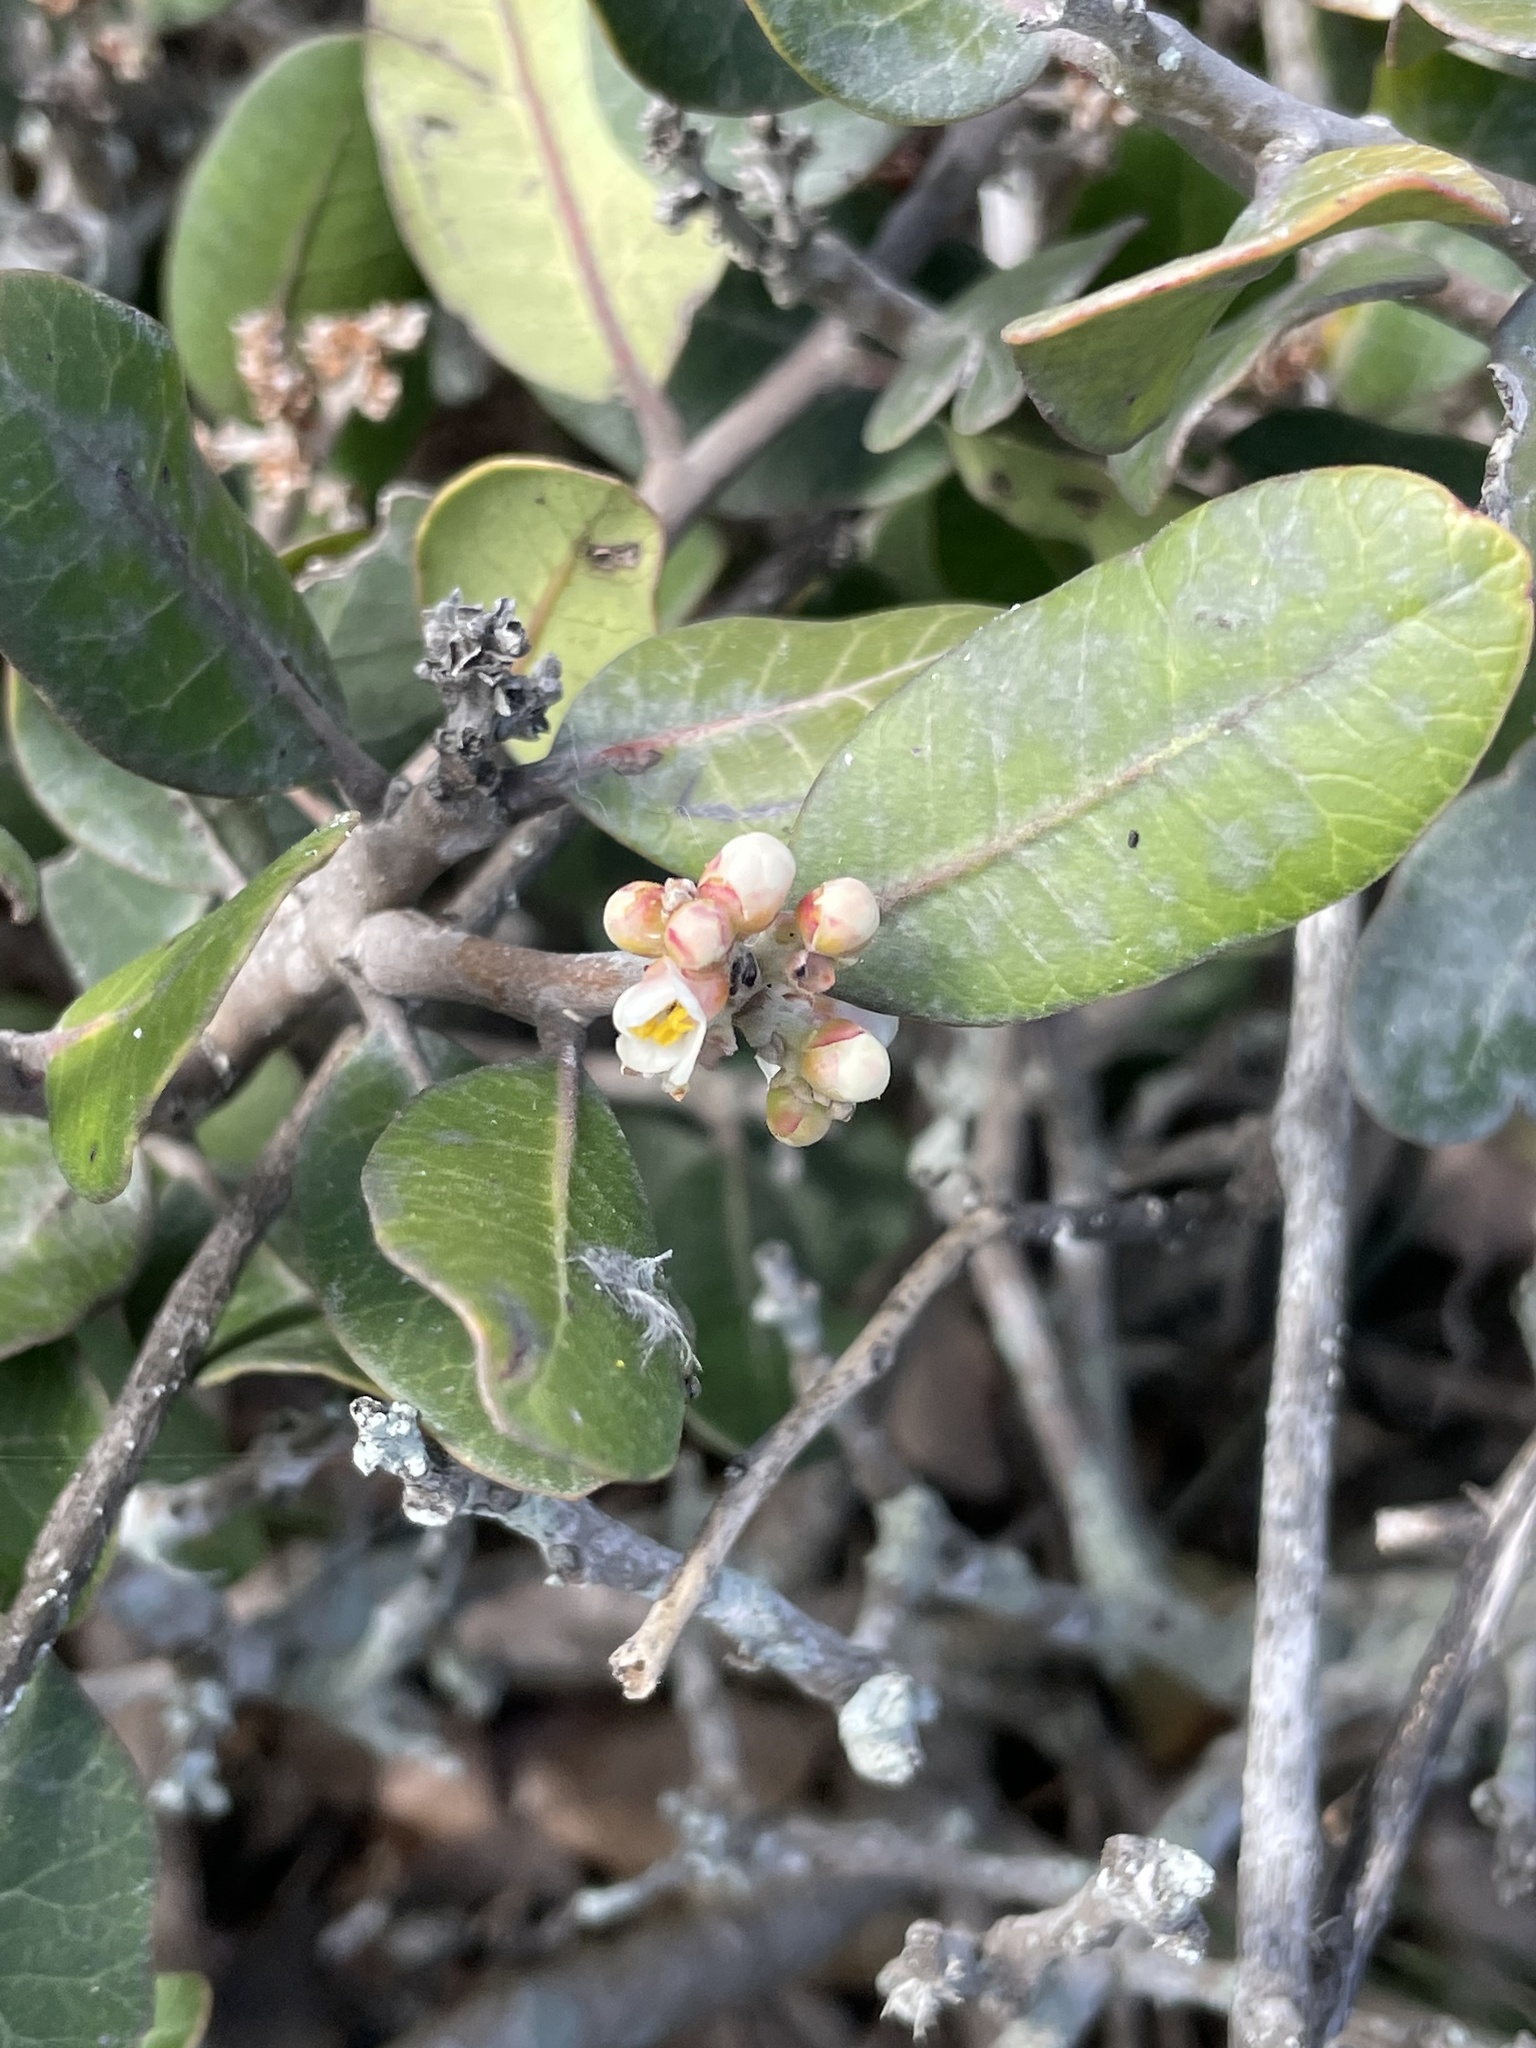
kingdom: Plantae
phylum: Tracheophyta
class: Magnoliopsida
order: Sapindales
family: Anacardiaceae
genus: Rhus
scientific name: Rhus integrifolia
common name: Lemonade sumac
